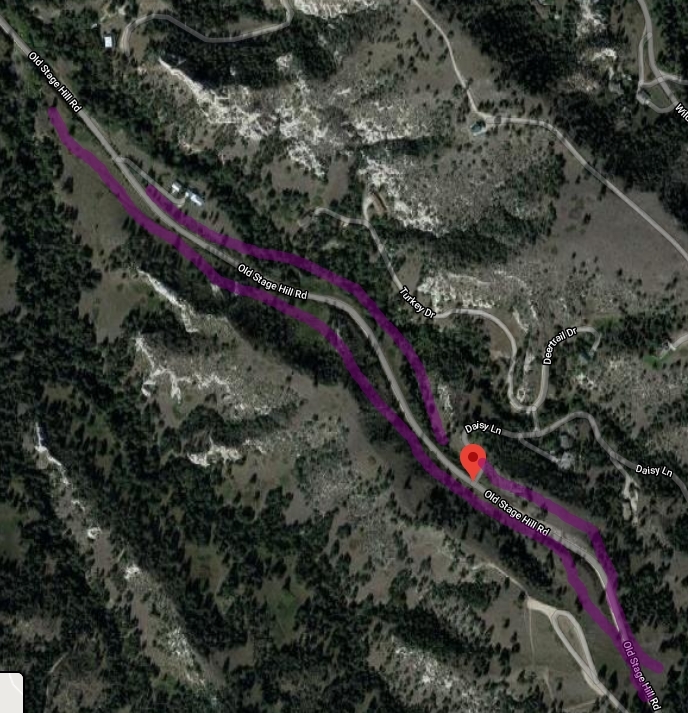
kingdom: Plantae
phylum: Tracheophyta
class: Magnoliopsida
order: Asterales
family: Asteraceae
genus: Carduus
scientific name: Carduus nutans
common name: Musk thistle
